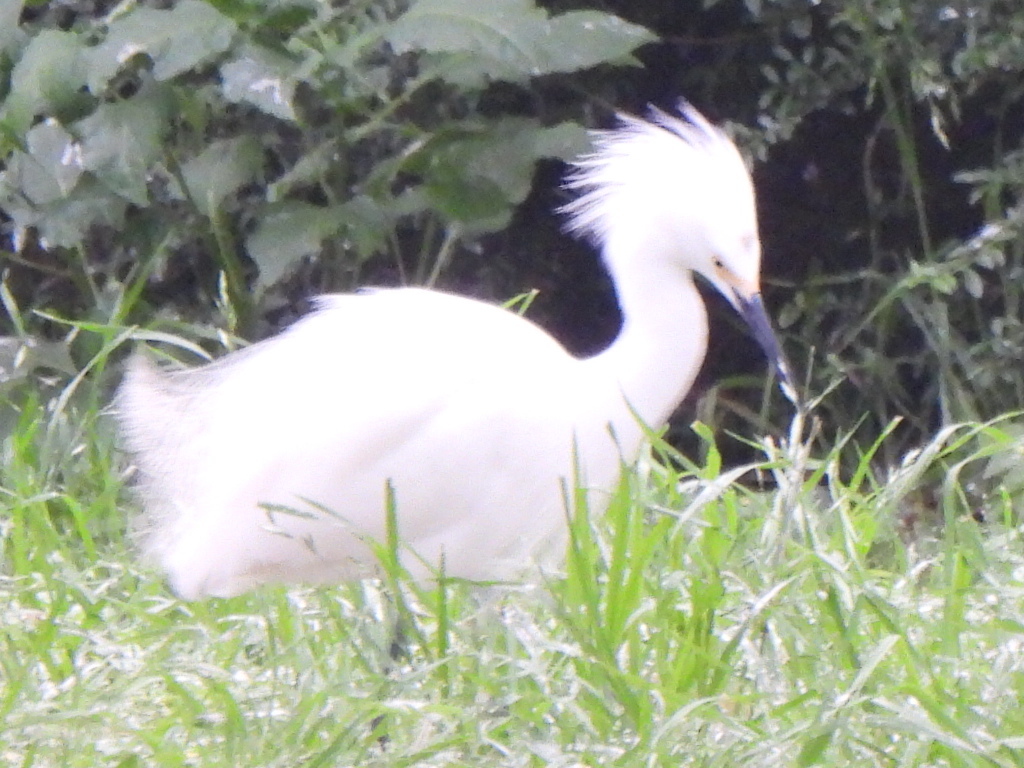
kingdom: Animalia
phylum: Chordata
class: Aves
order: Pelecaniformes
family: Ardeidae
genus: Egretta
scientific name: Egretta thula
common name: Snowy egret
